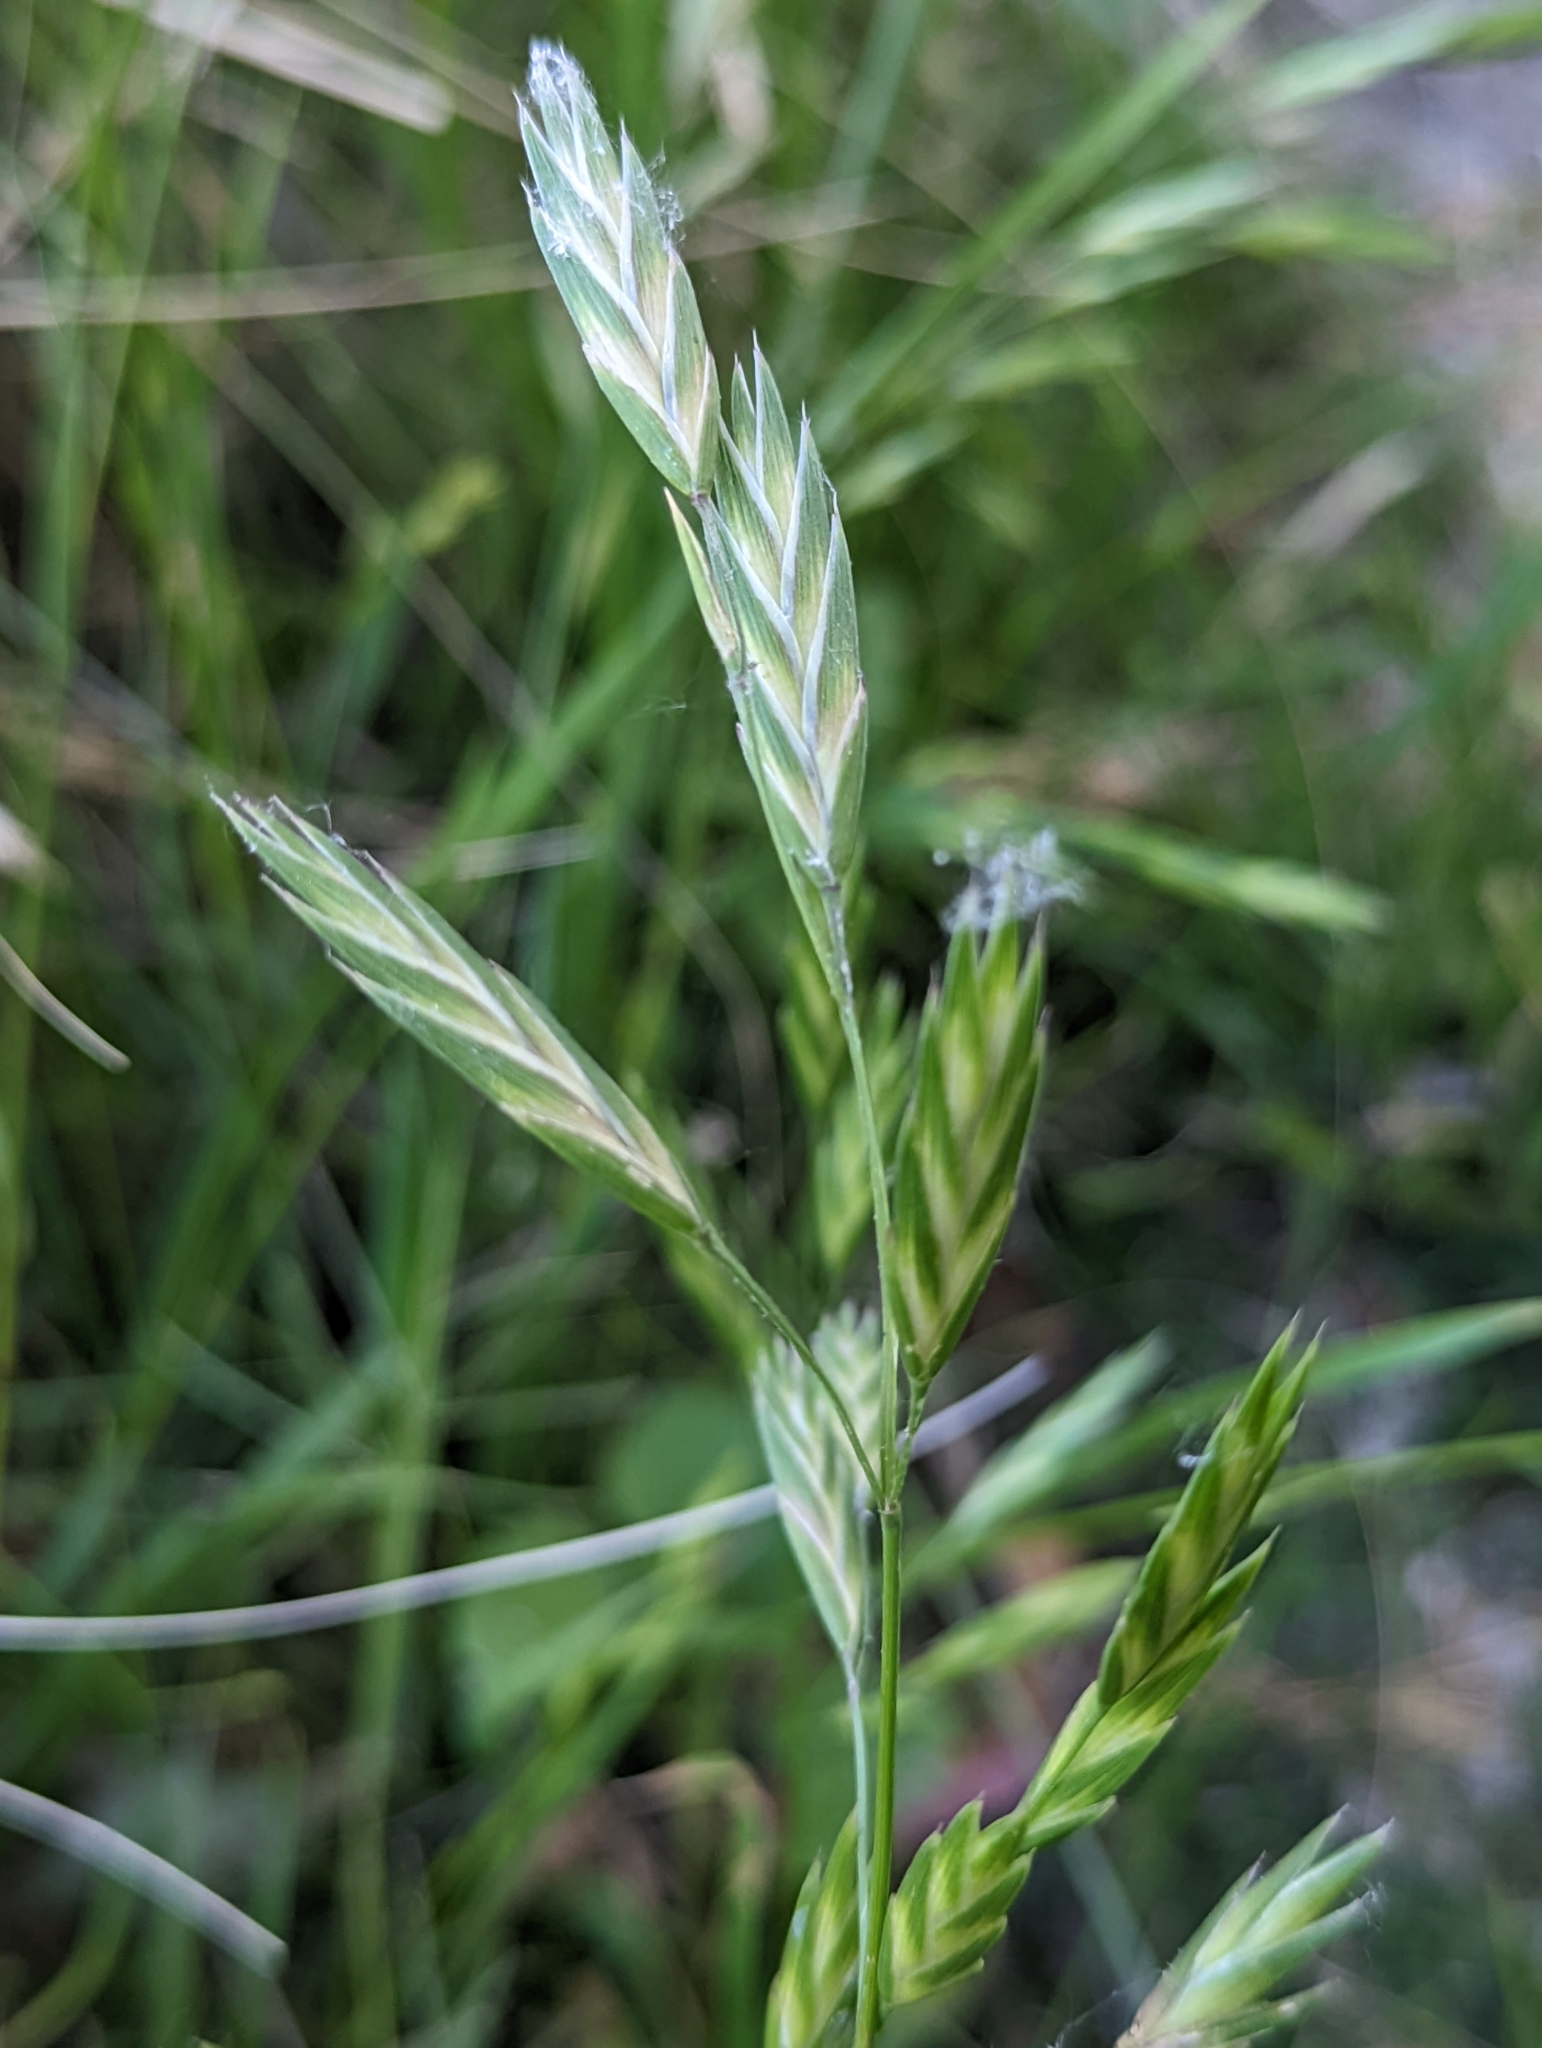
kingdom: Plantae
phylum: Tracheophyta
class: Liliopsida
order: Poales
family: Poaceae
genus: Bromus
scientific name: Bromus catharticus
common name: Rescuegrass
